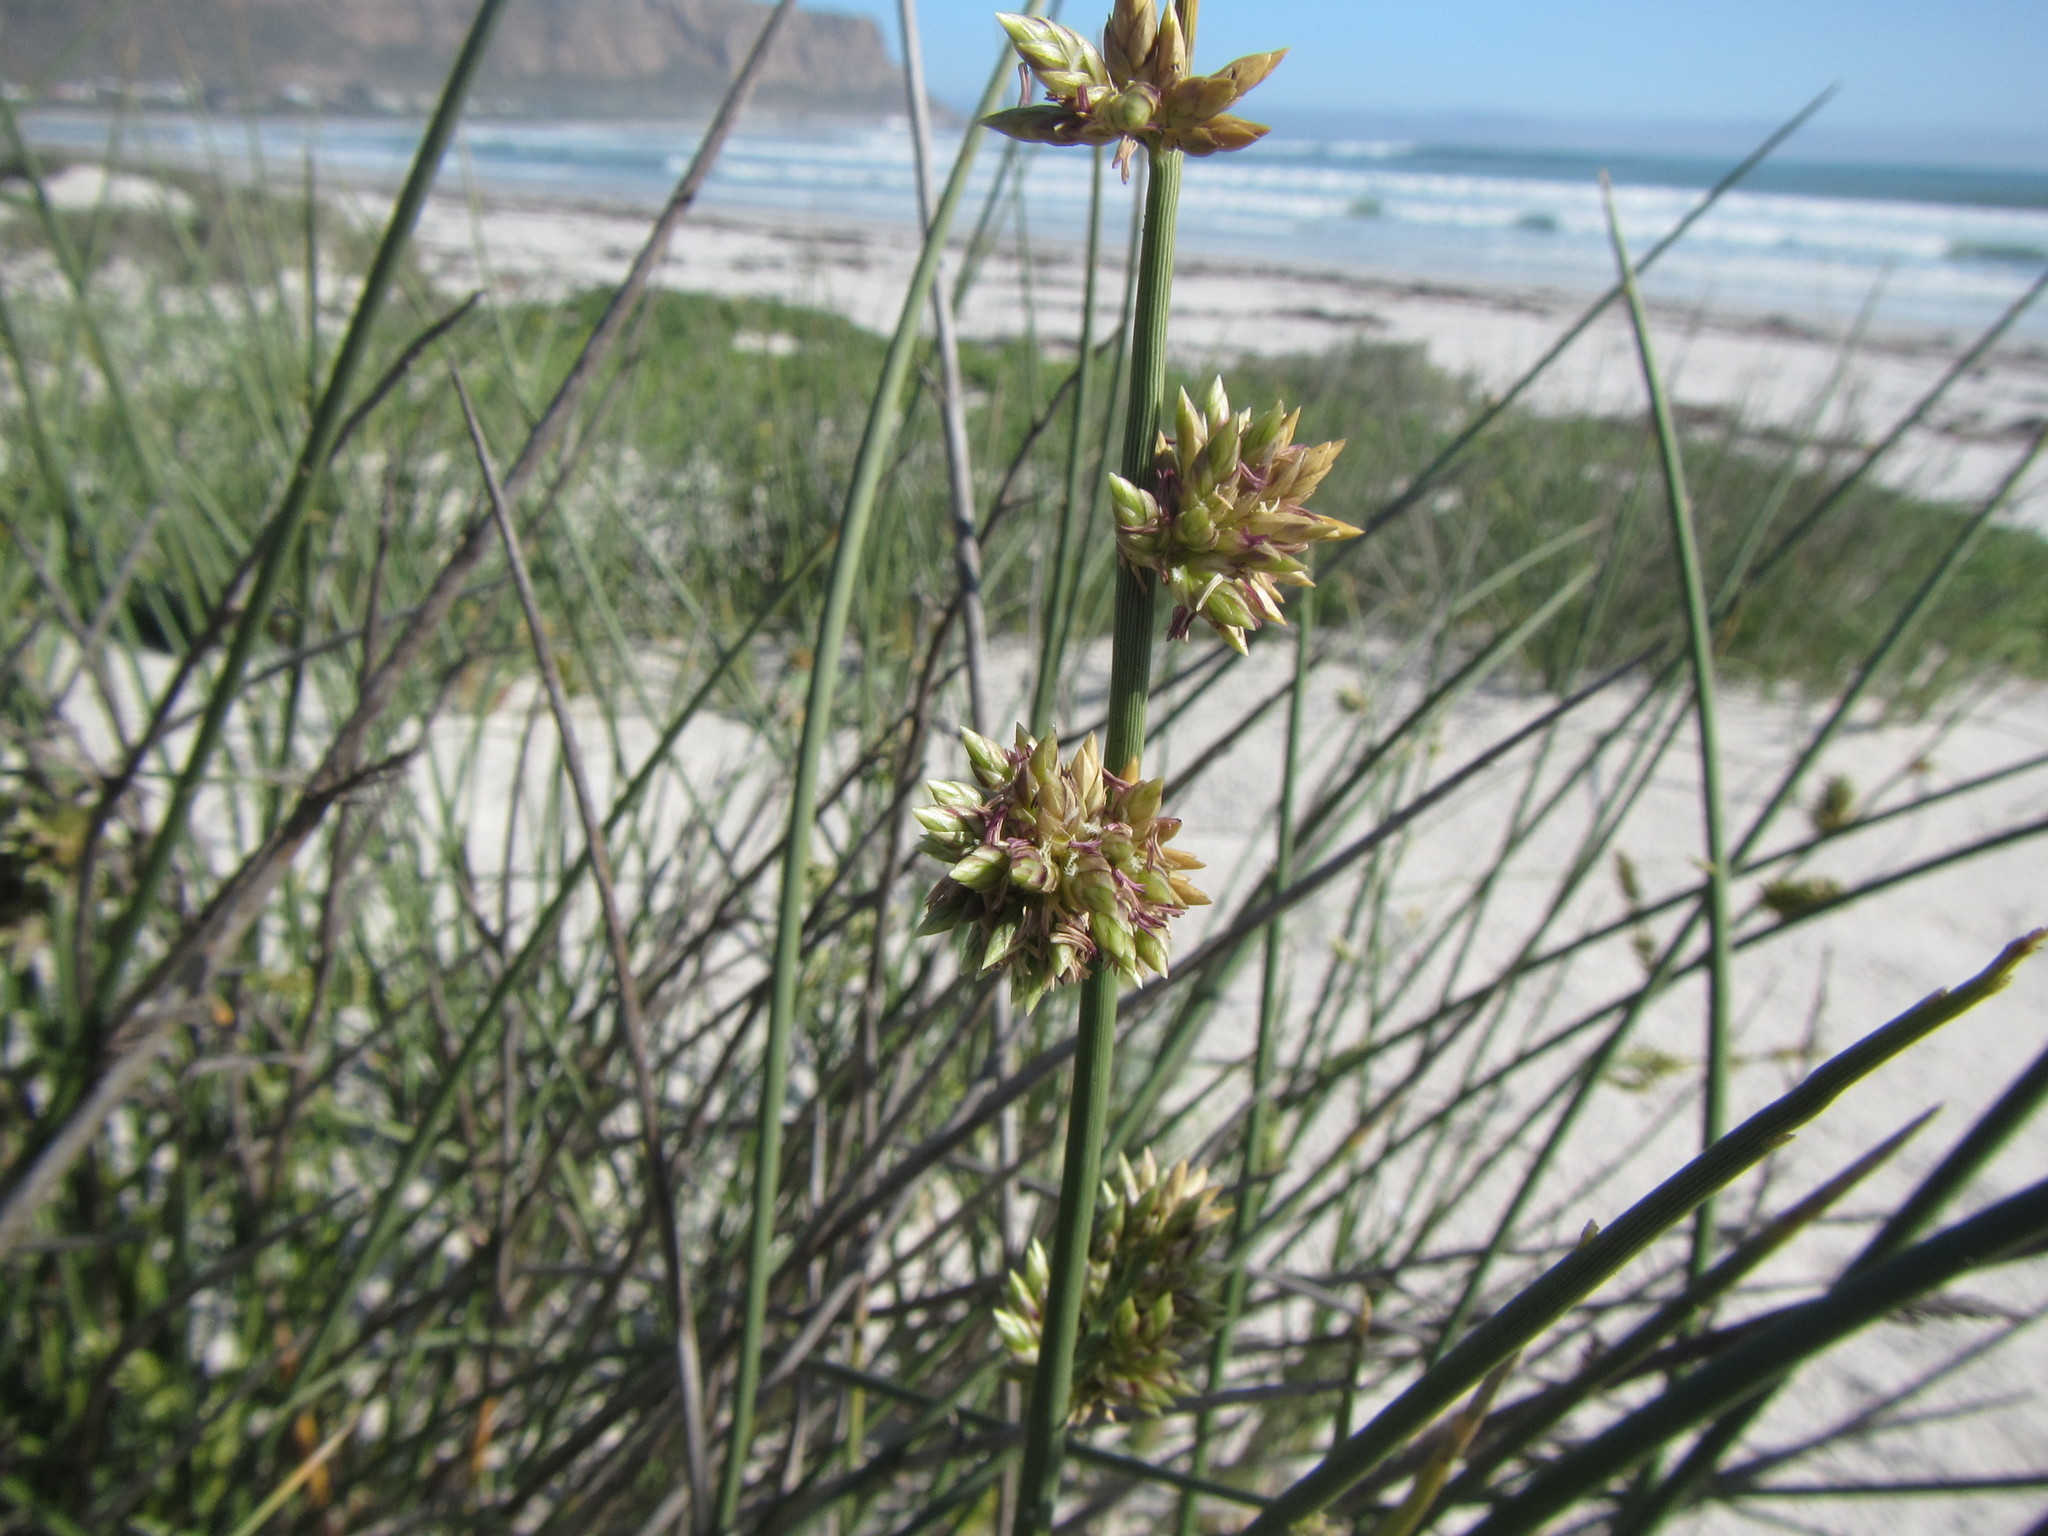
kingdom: Plantae
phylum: Tracheophyta
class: Liliopsida
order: Poales
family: Poaceae
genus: Cladoraphis
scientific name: Cladoraphis cyperoides
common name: Bristly lovegrass
